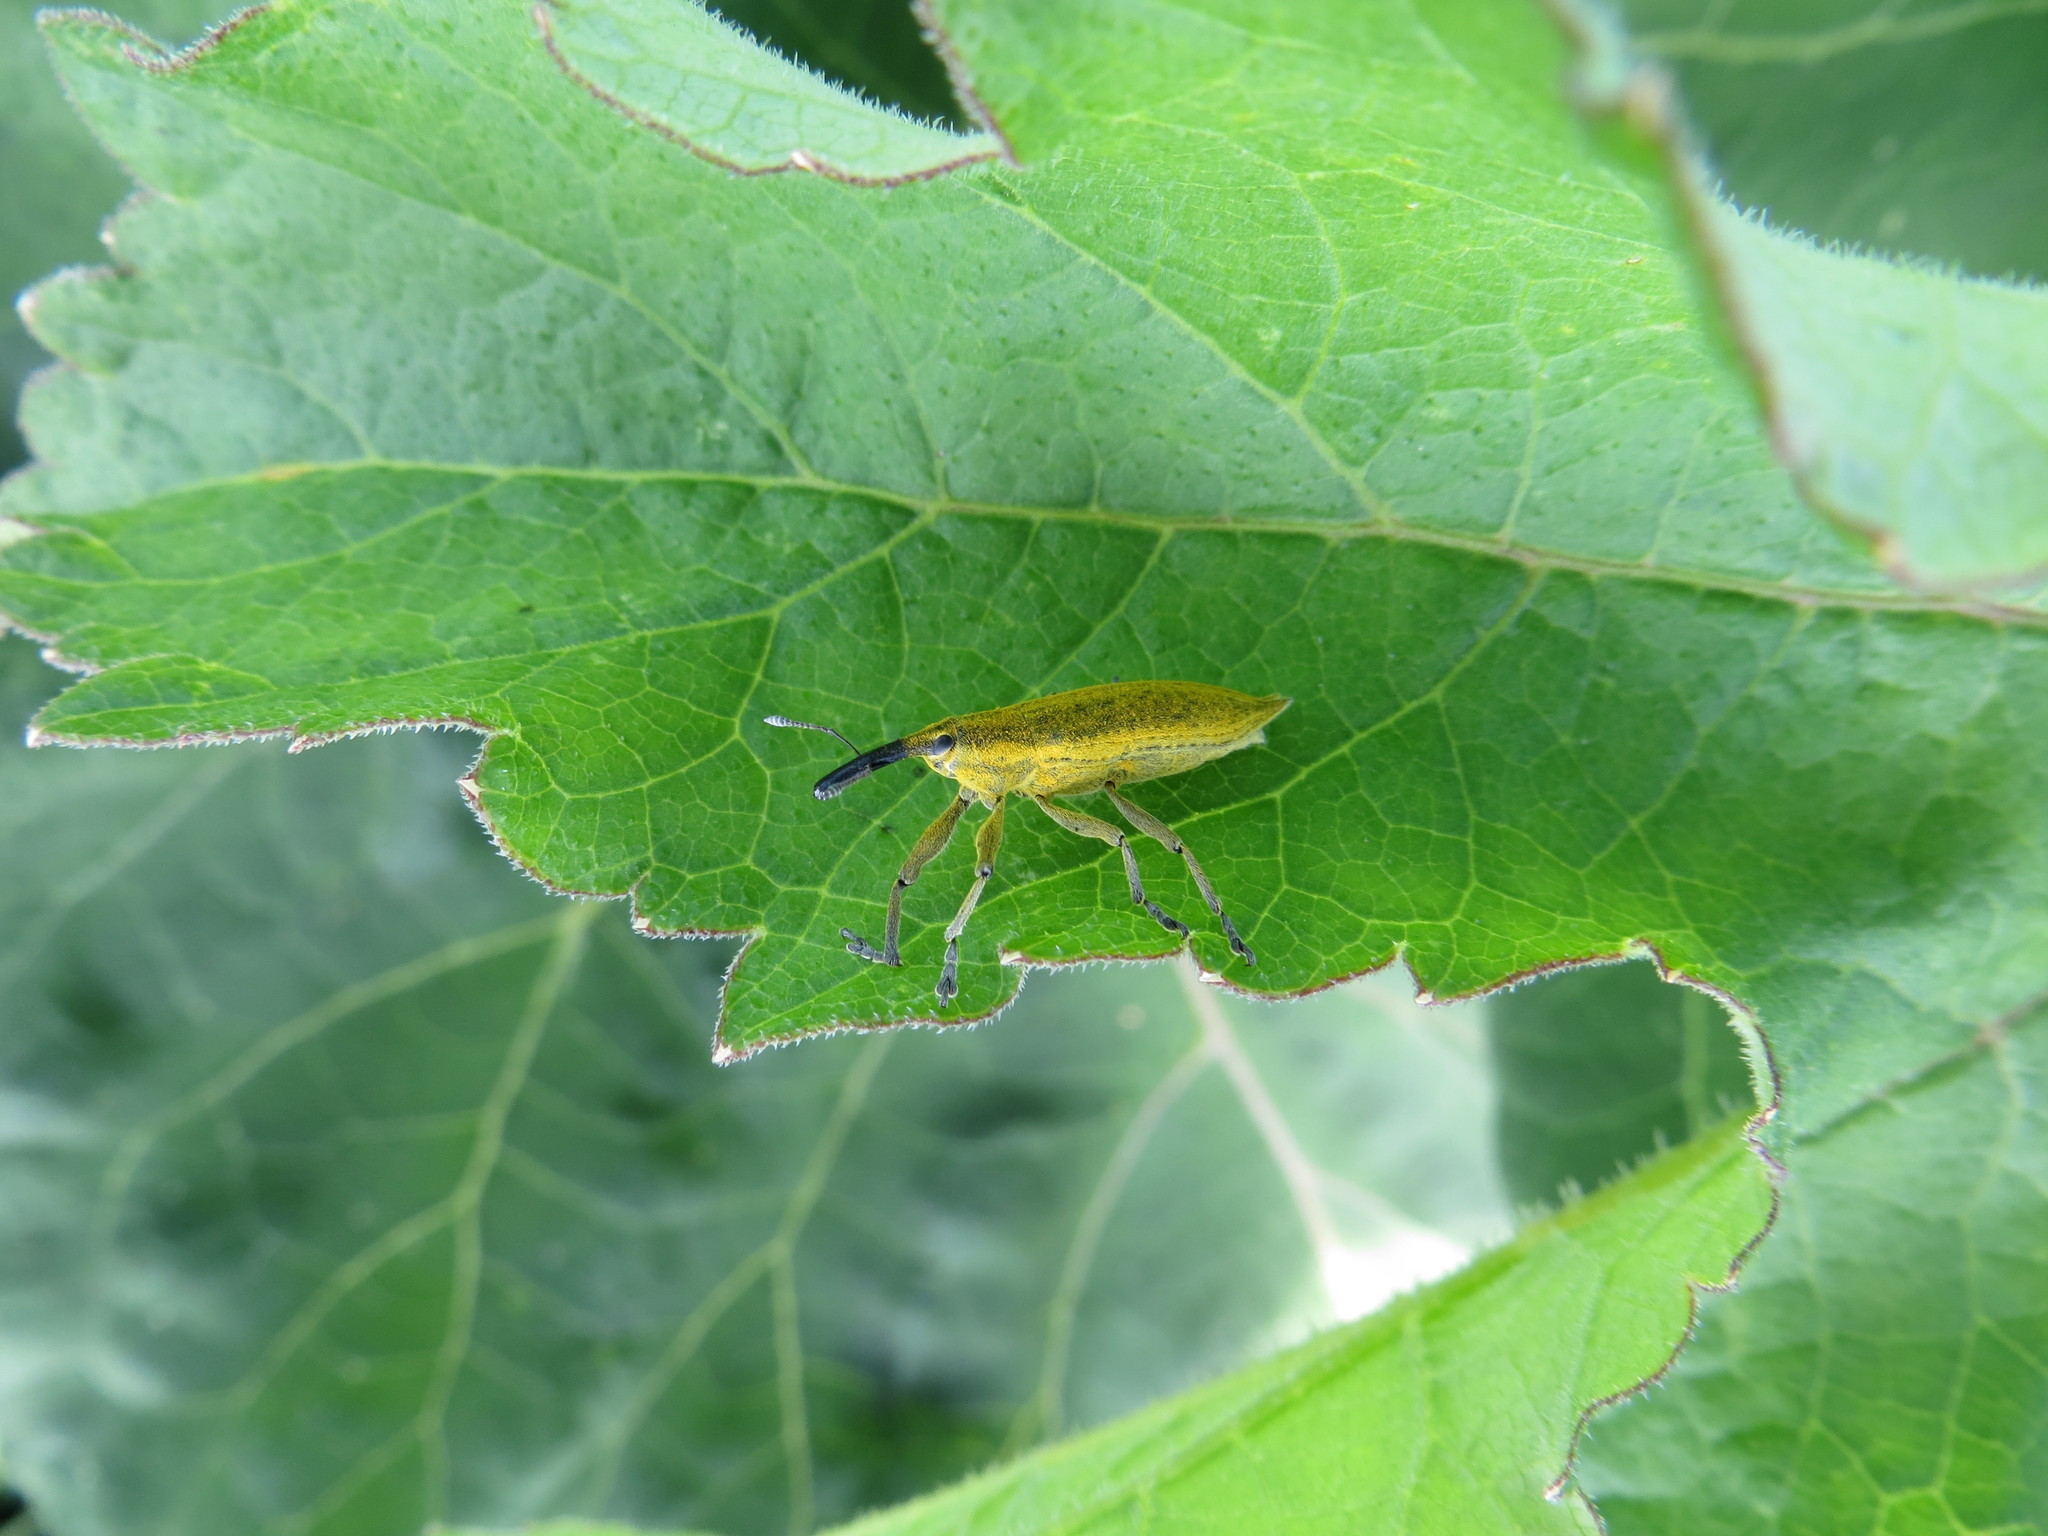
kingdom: Animalia
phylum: Arthropoda
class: Insecta
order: Coleoptera
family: Curculionidae
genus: Lixus
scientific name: Lixus iridis
